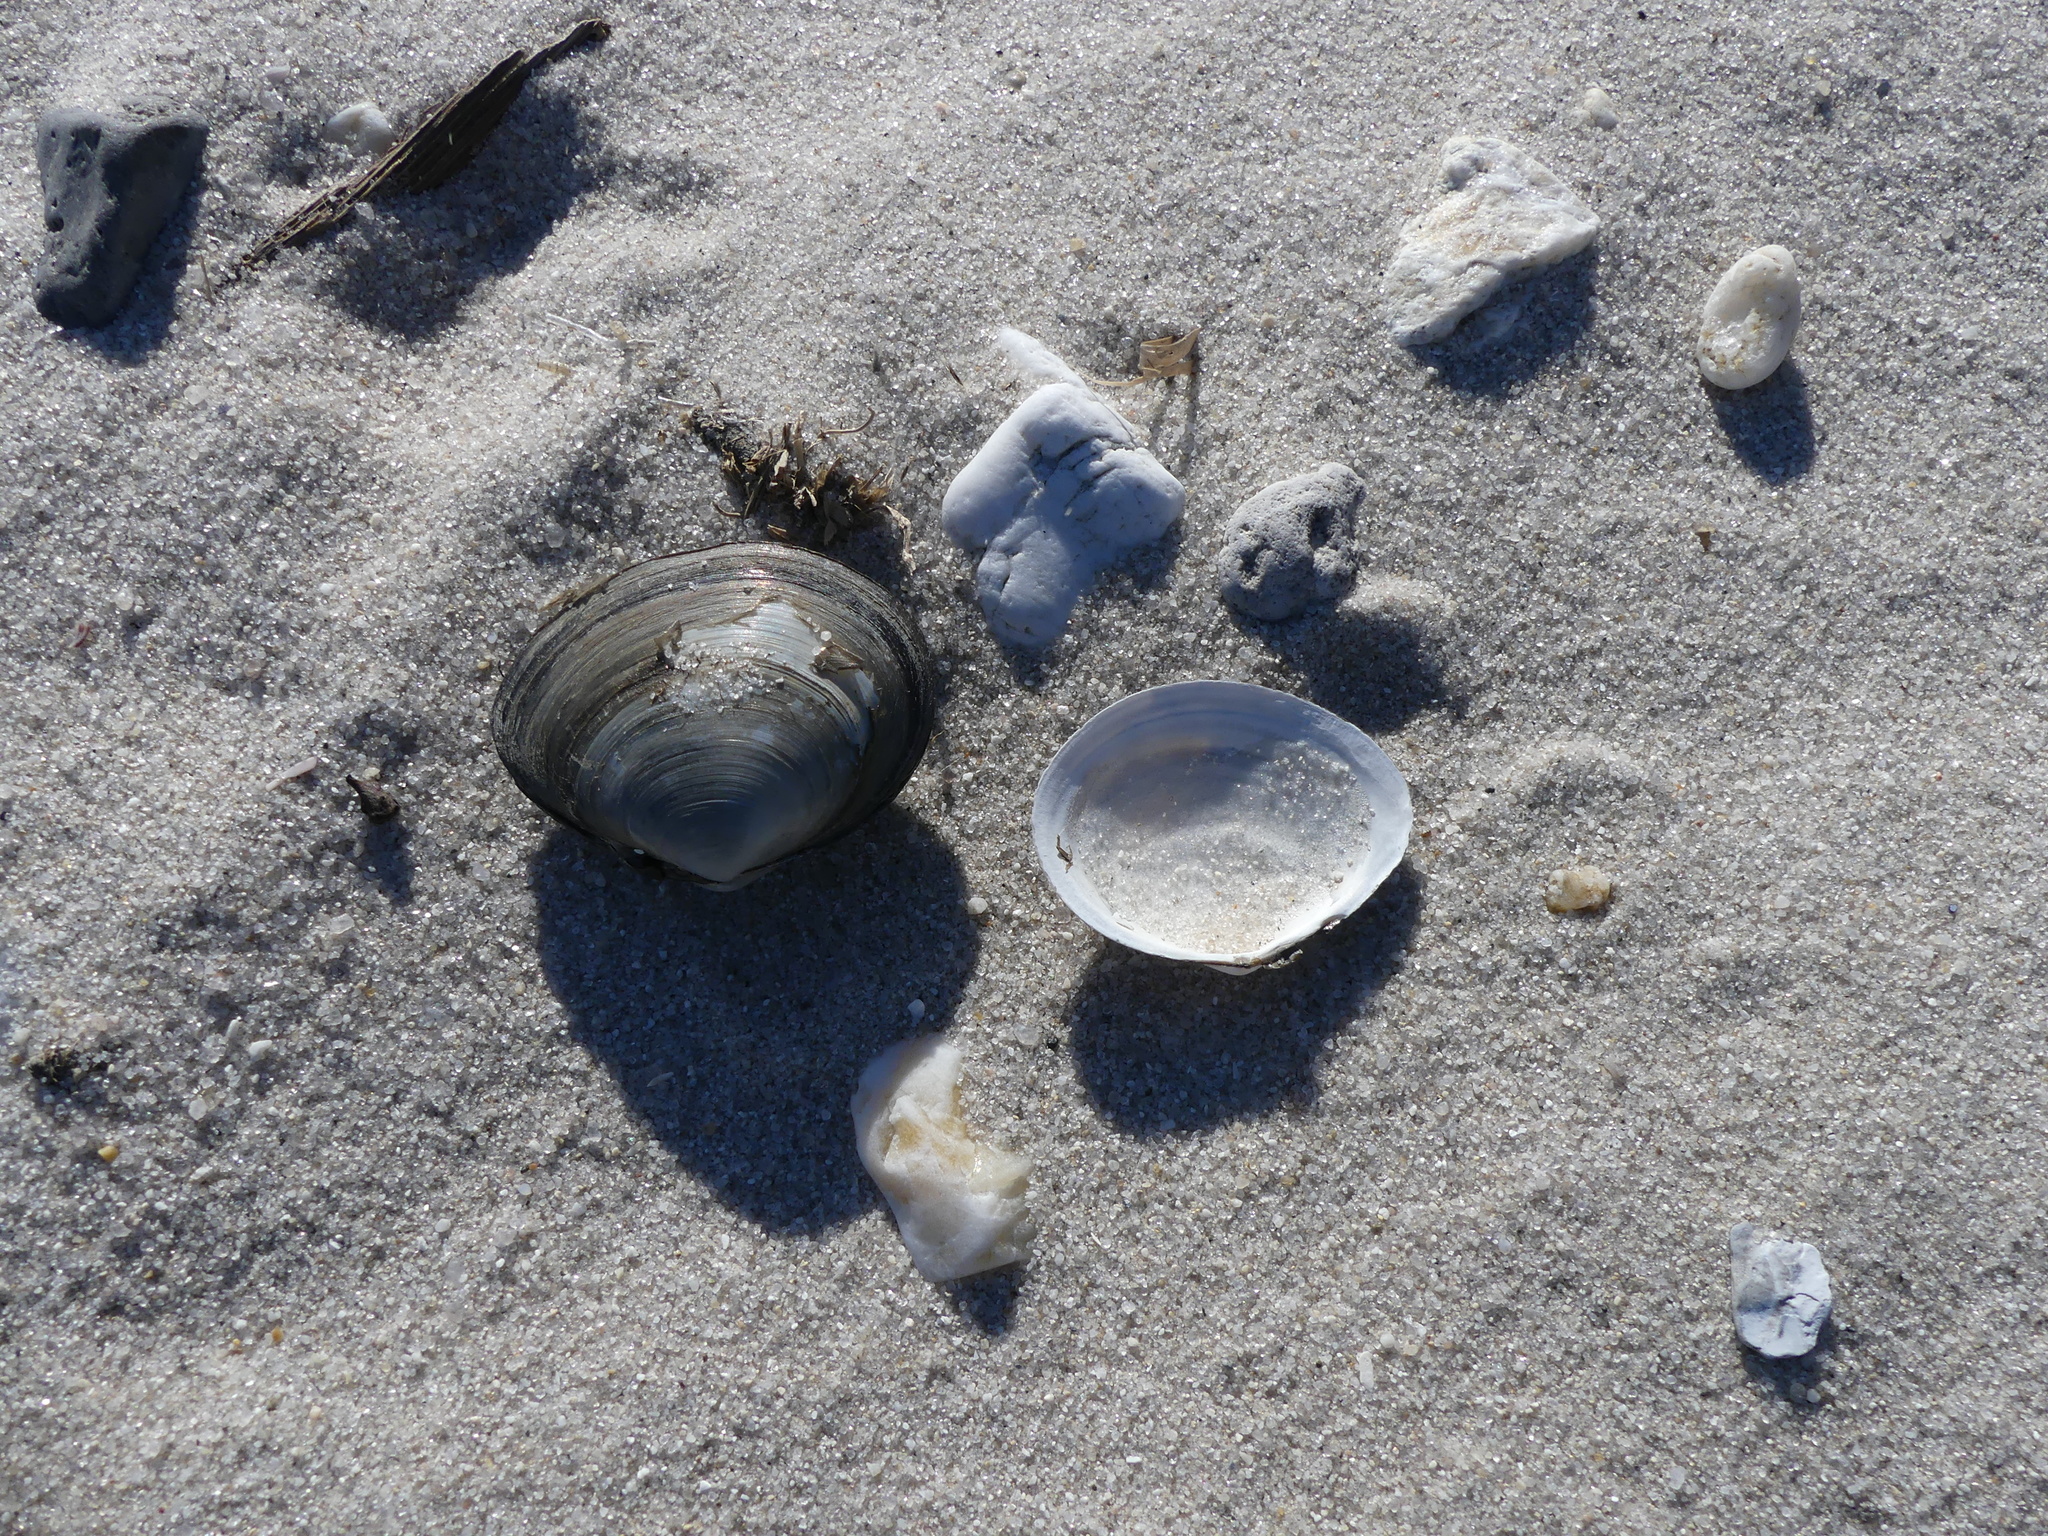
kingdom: Animalia
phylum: Mollusca
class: Bivalvia
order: Cardiida
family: Tellinidae
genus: Macoma
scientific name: Macoma petalum
